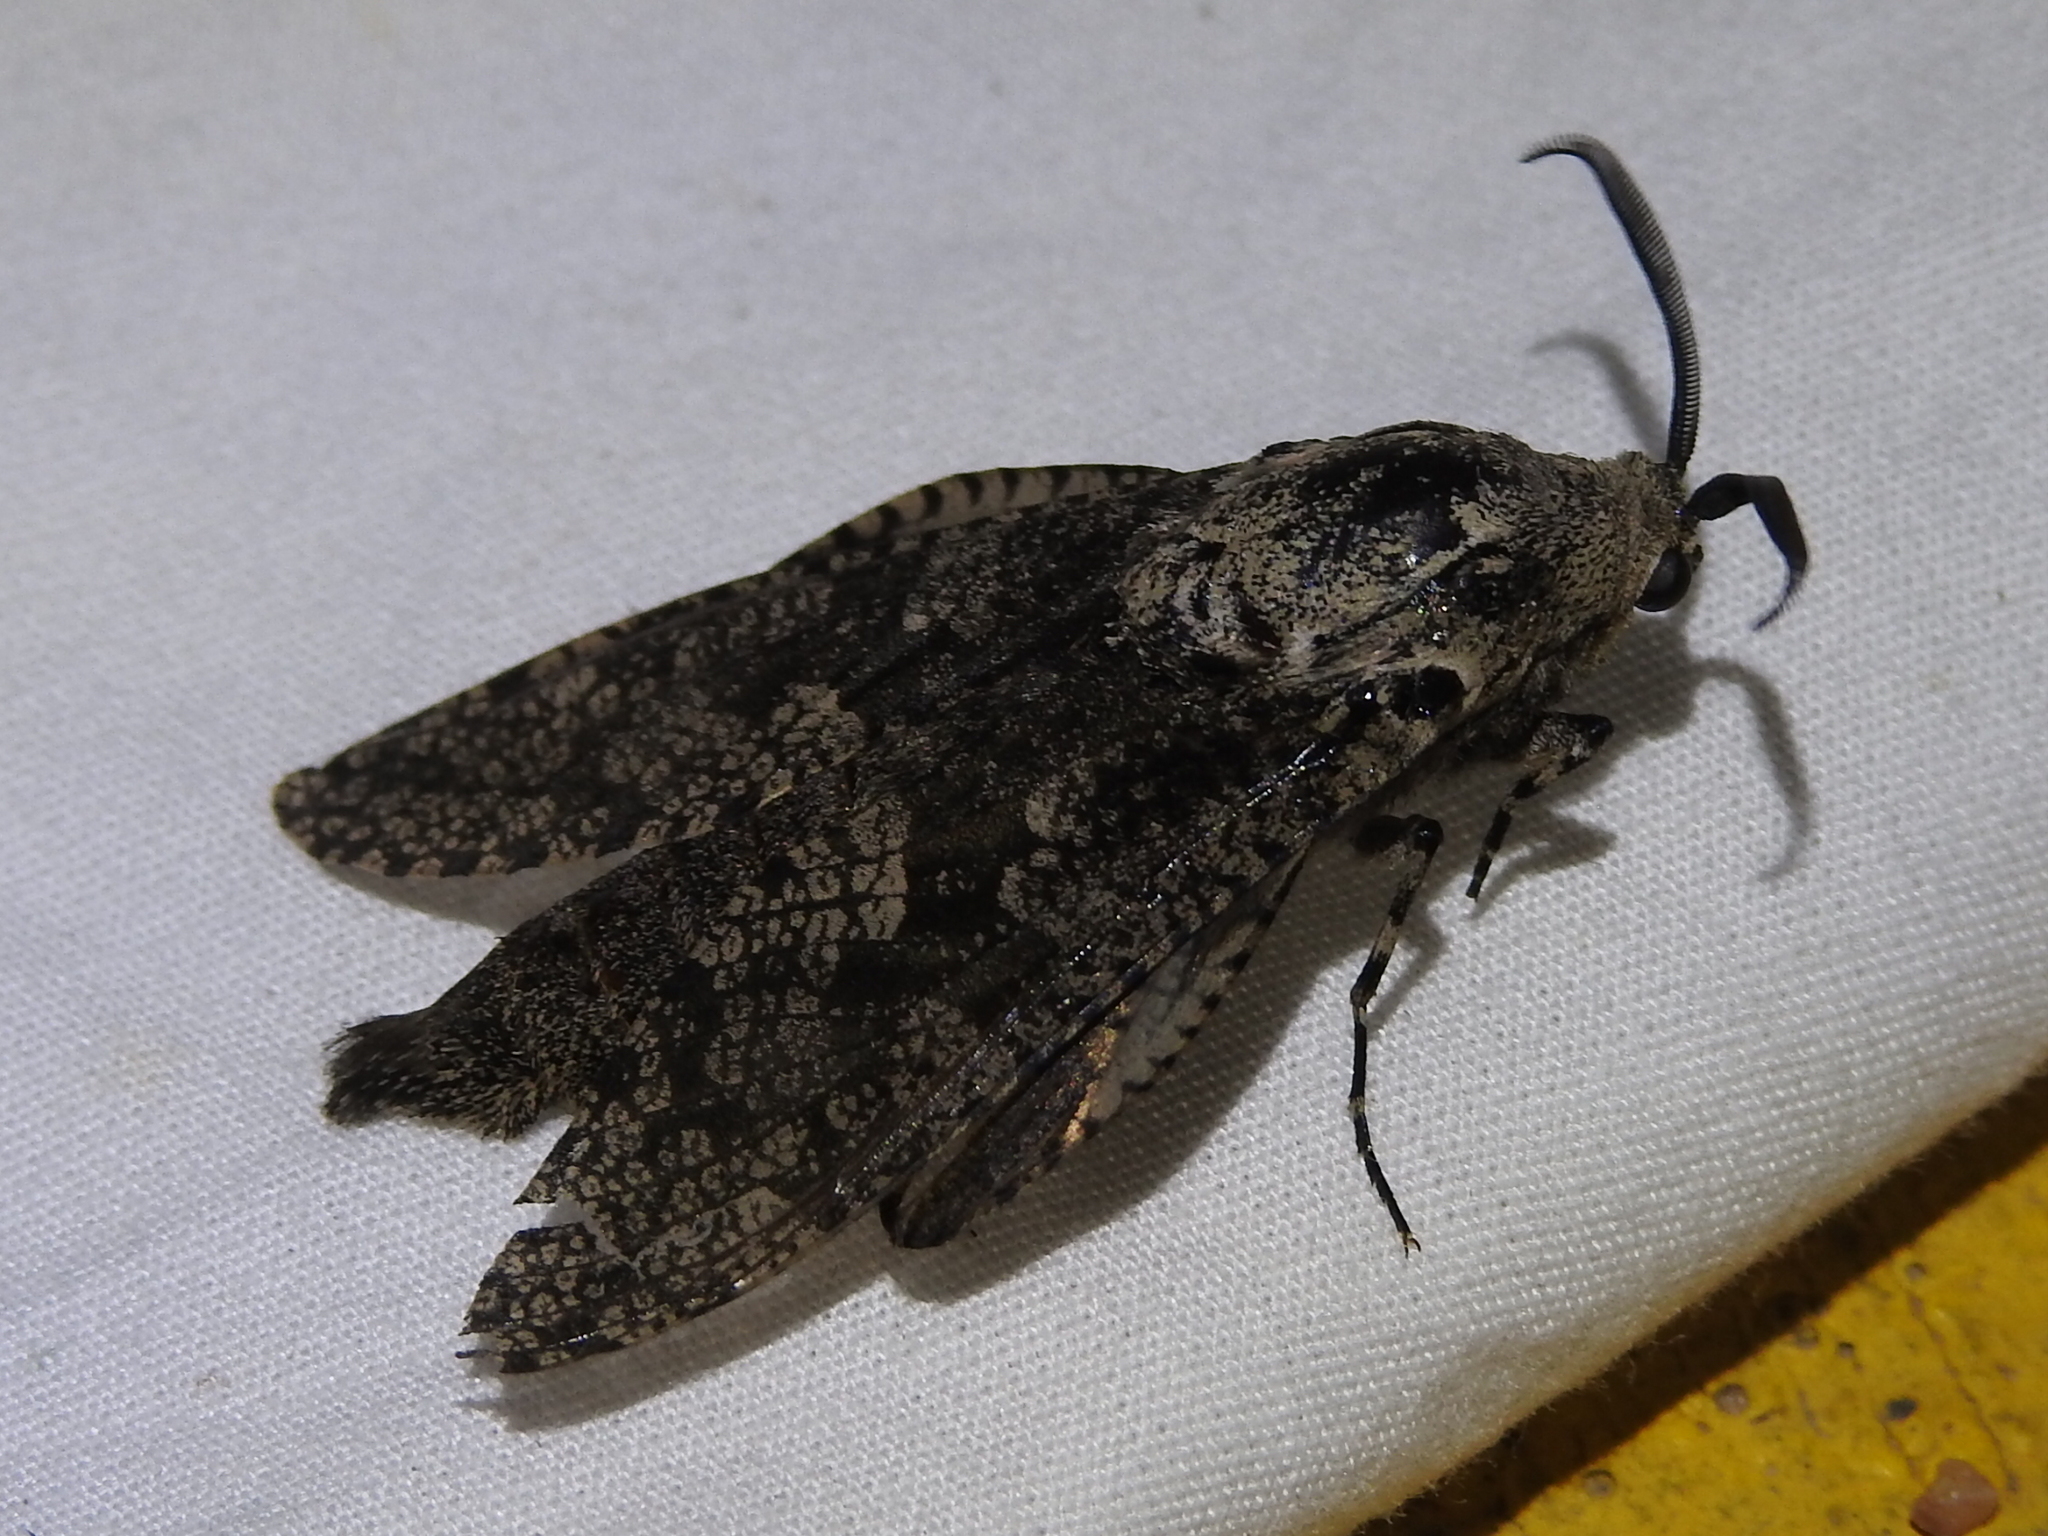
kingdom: Animalia
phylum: Arthropoda
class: Insecta
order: Lepidoptera
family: Cossidae
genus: Prionoxystus
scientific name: Prionoxystus robiniae
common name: Carpenterworm
